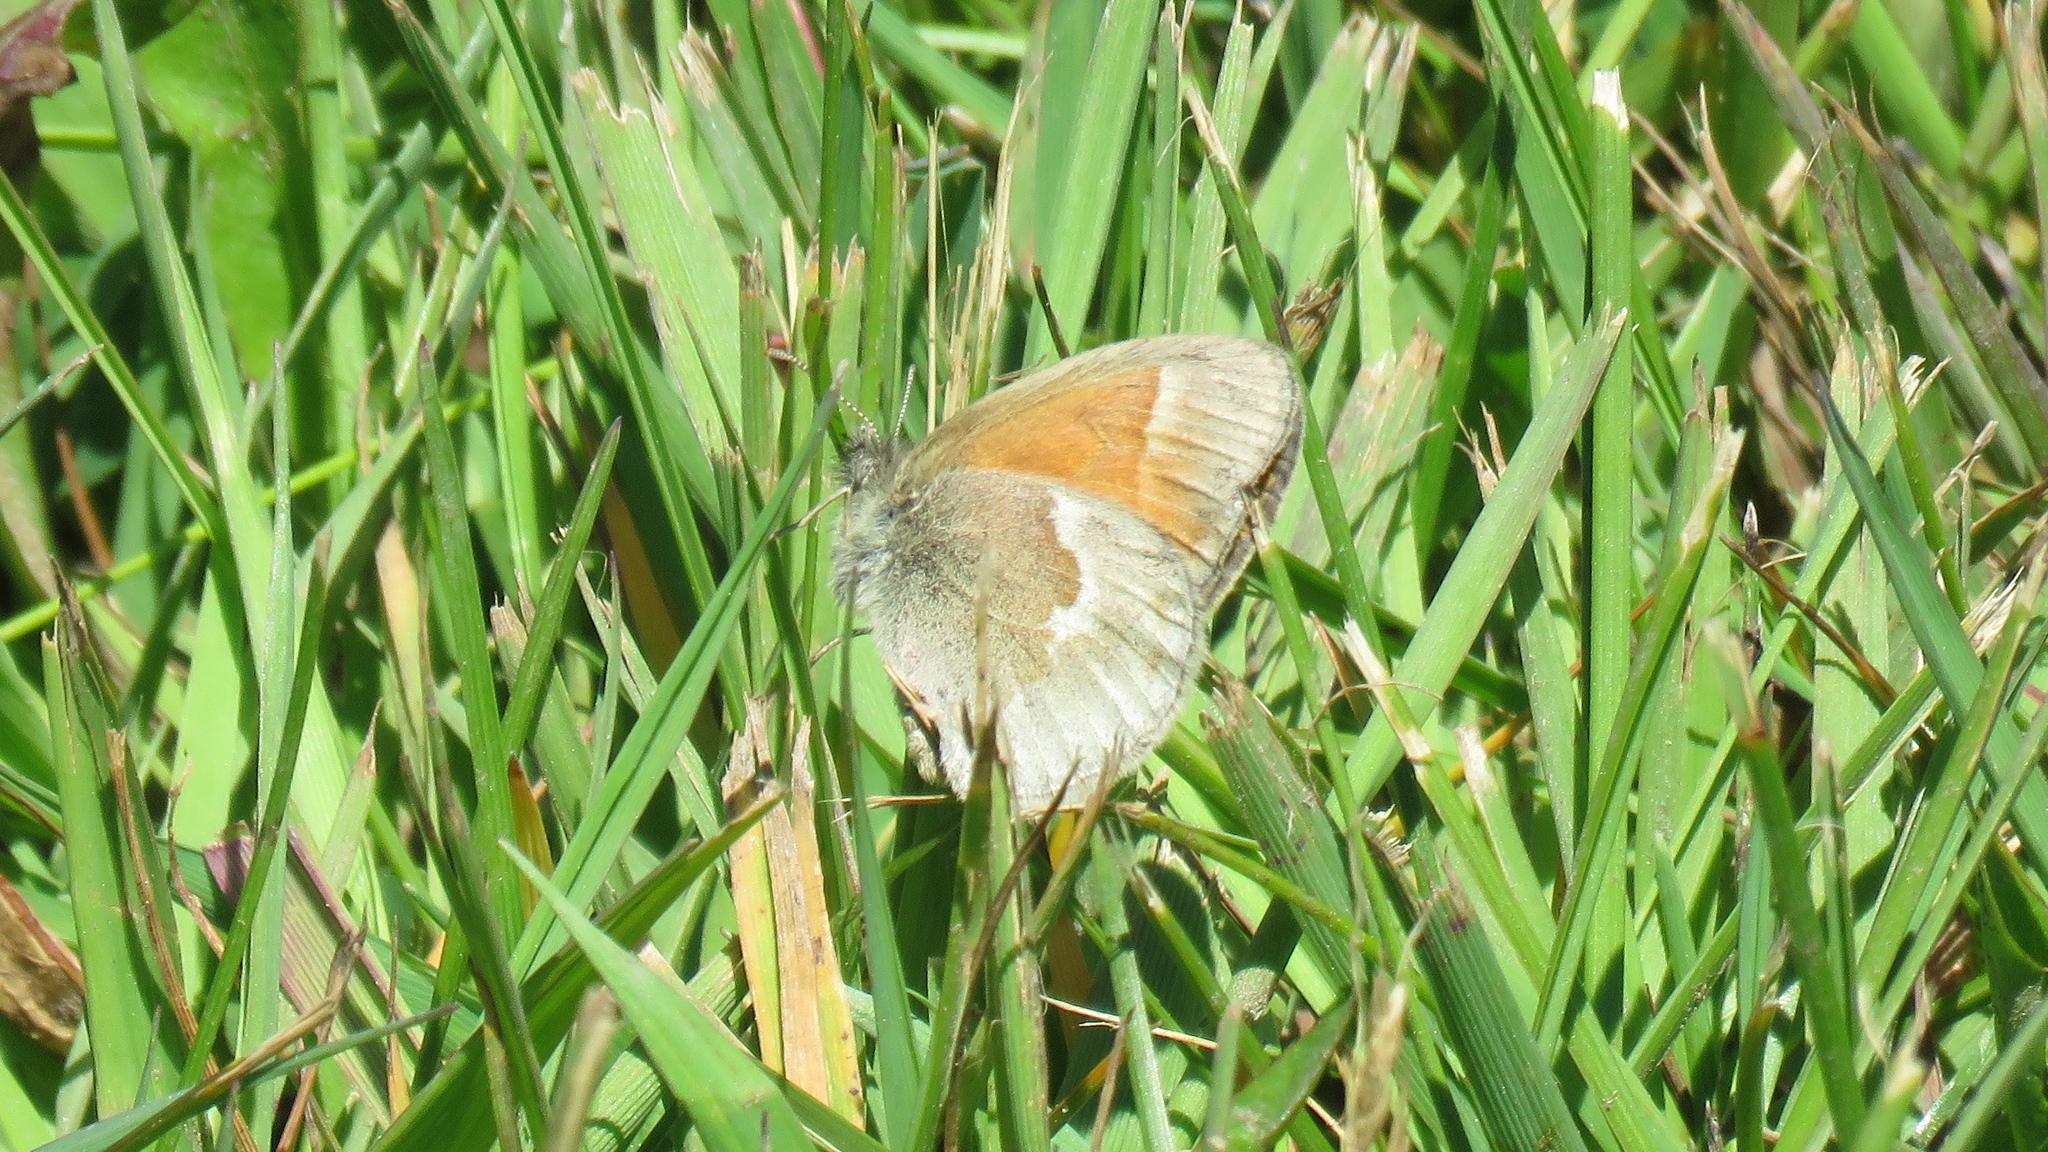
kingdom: Animalia
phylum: Arthropoda
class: Insecta
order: Lepidoptera
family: Nymphalidae
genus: Coenonympha
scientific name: Coenonympha california
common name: Common ringlet
